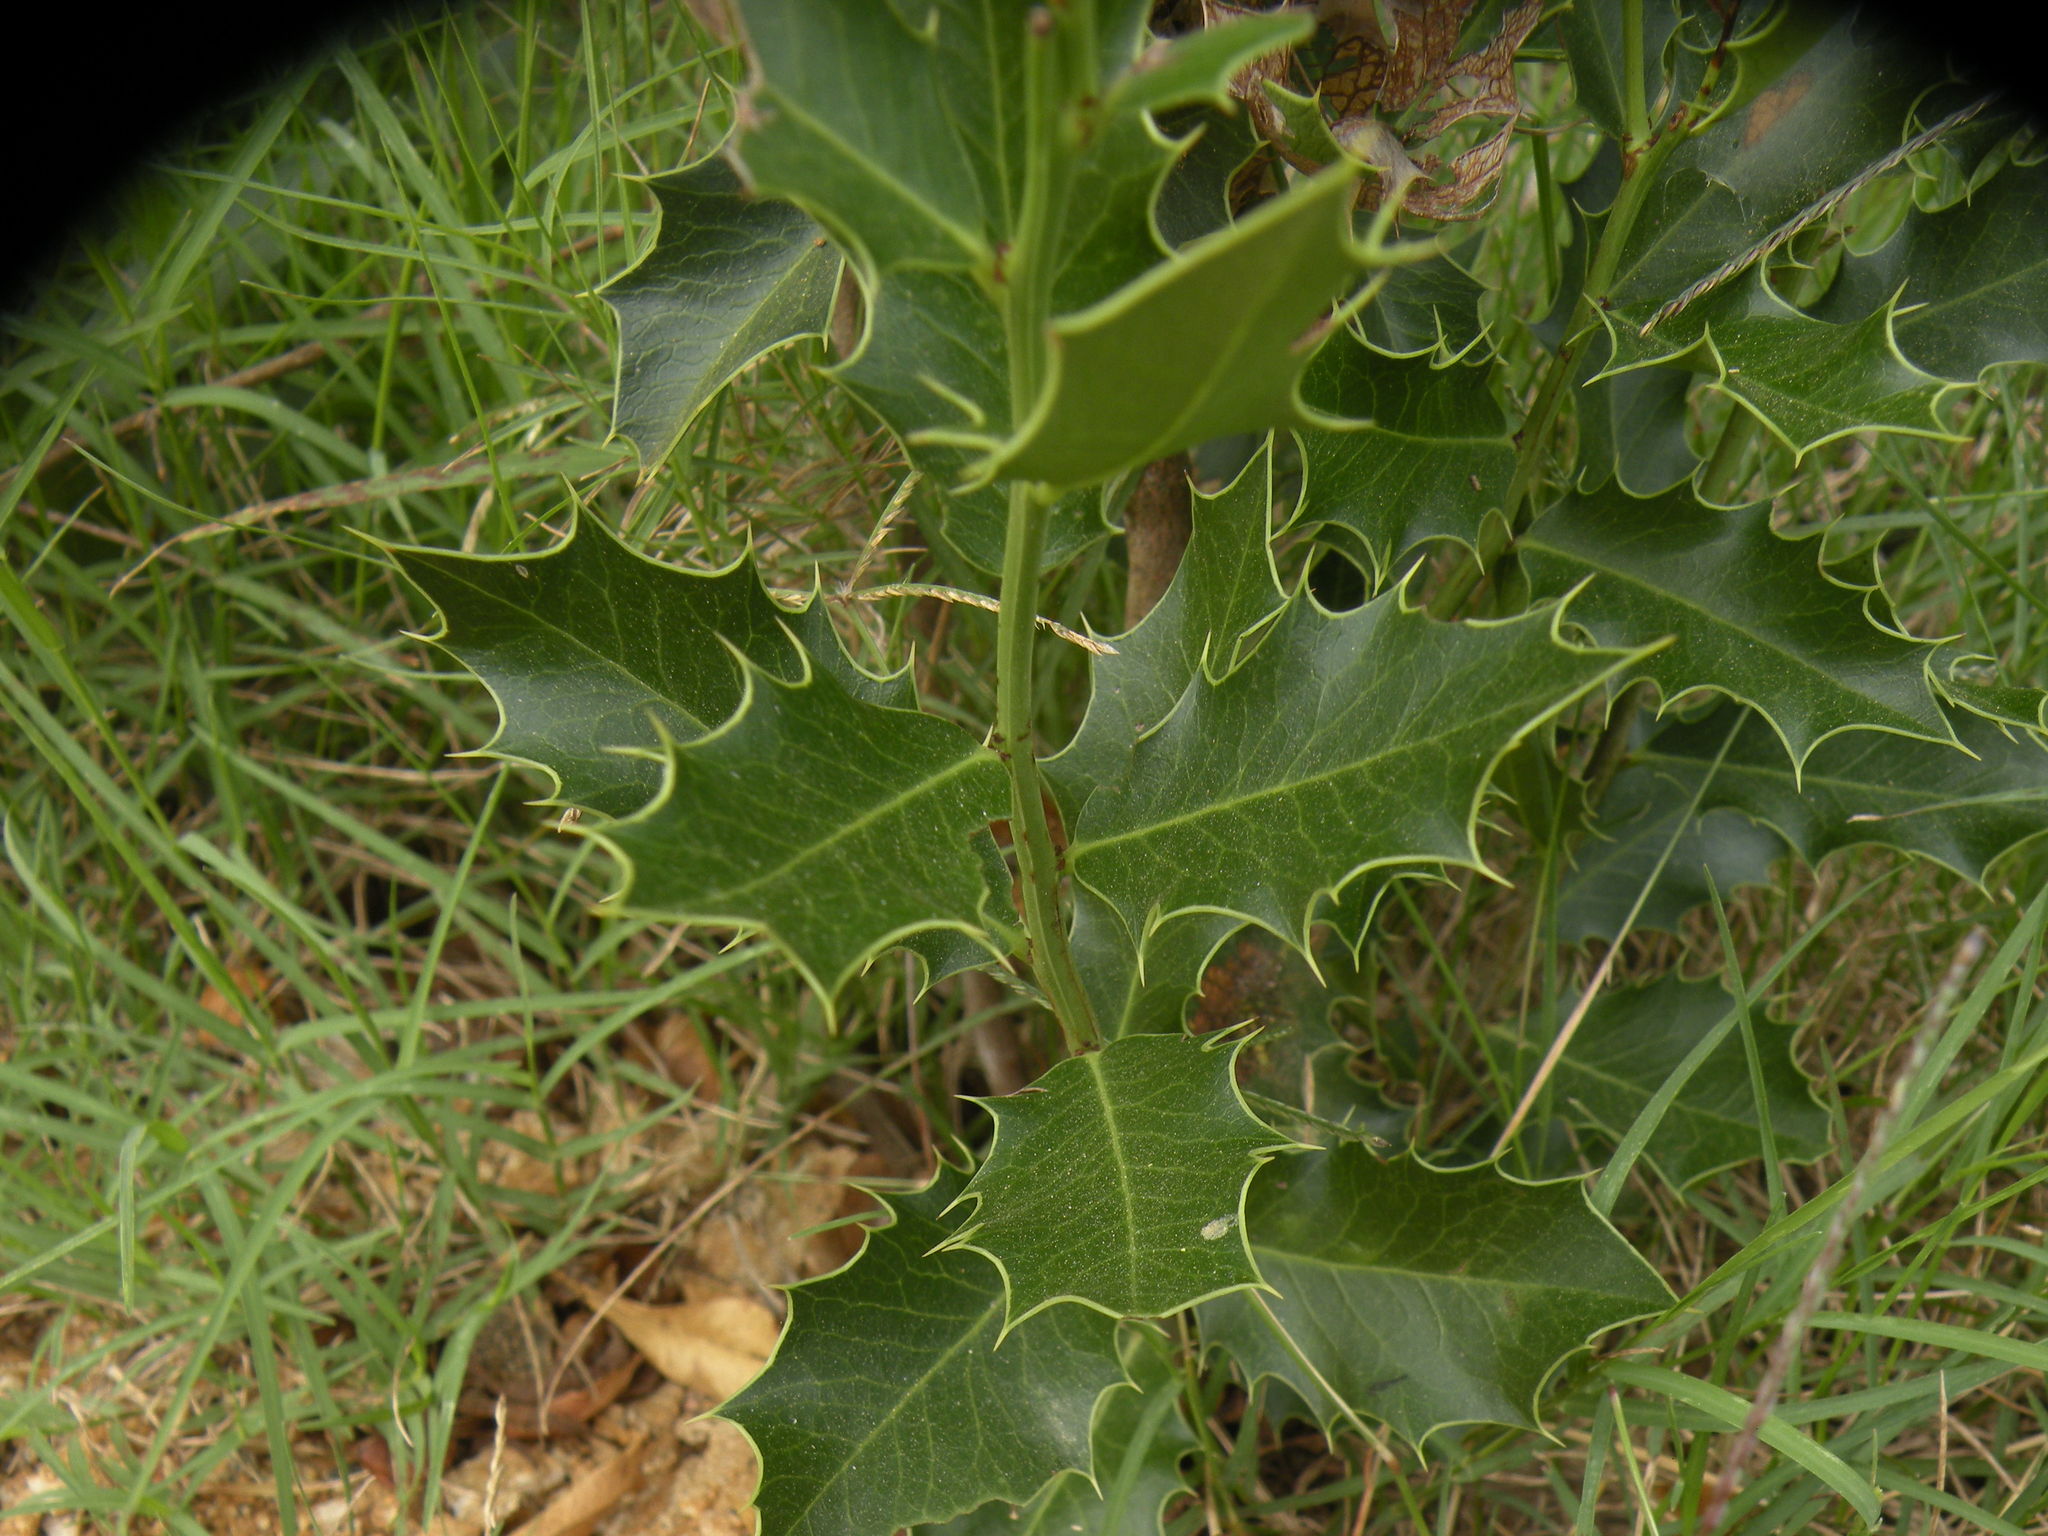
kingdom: Plantae
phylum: Tracheophyta
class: Magnoliopsida
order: Celastrales
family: Celastraceae
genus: Monteverdia
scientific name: Monteverdia
